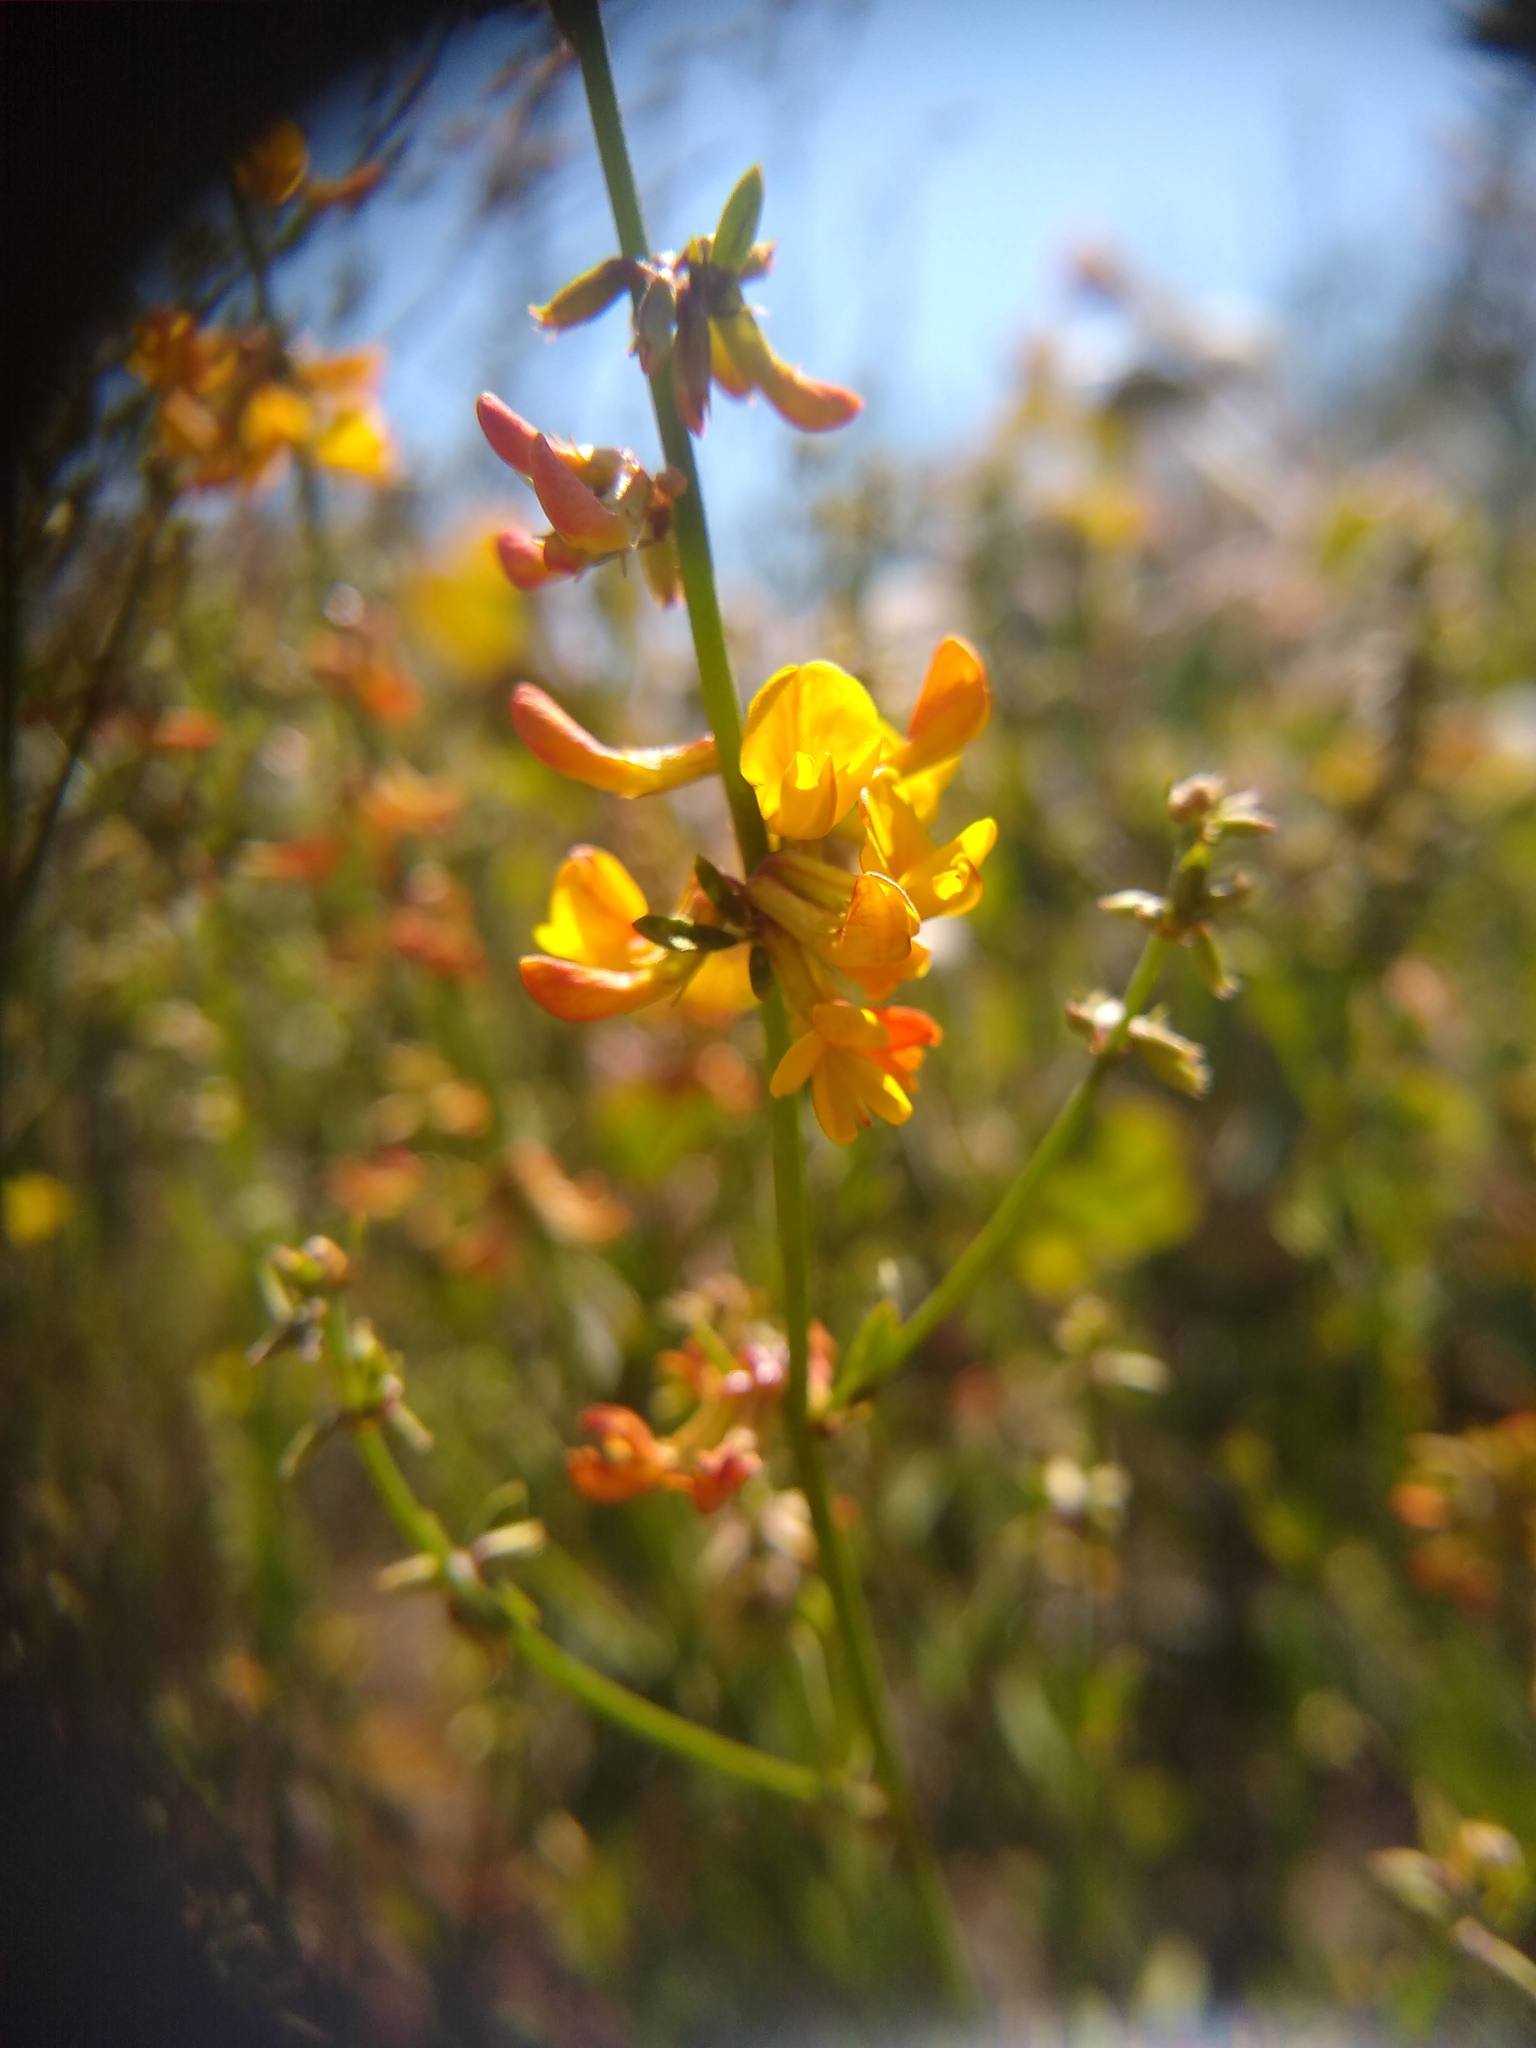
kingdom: Plantae
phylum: Tracheophyta
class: Magnoliopsida
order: Fabales
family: Fabaceae
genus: Acmispon
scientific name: Acmispon glaber
